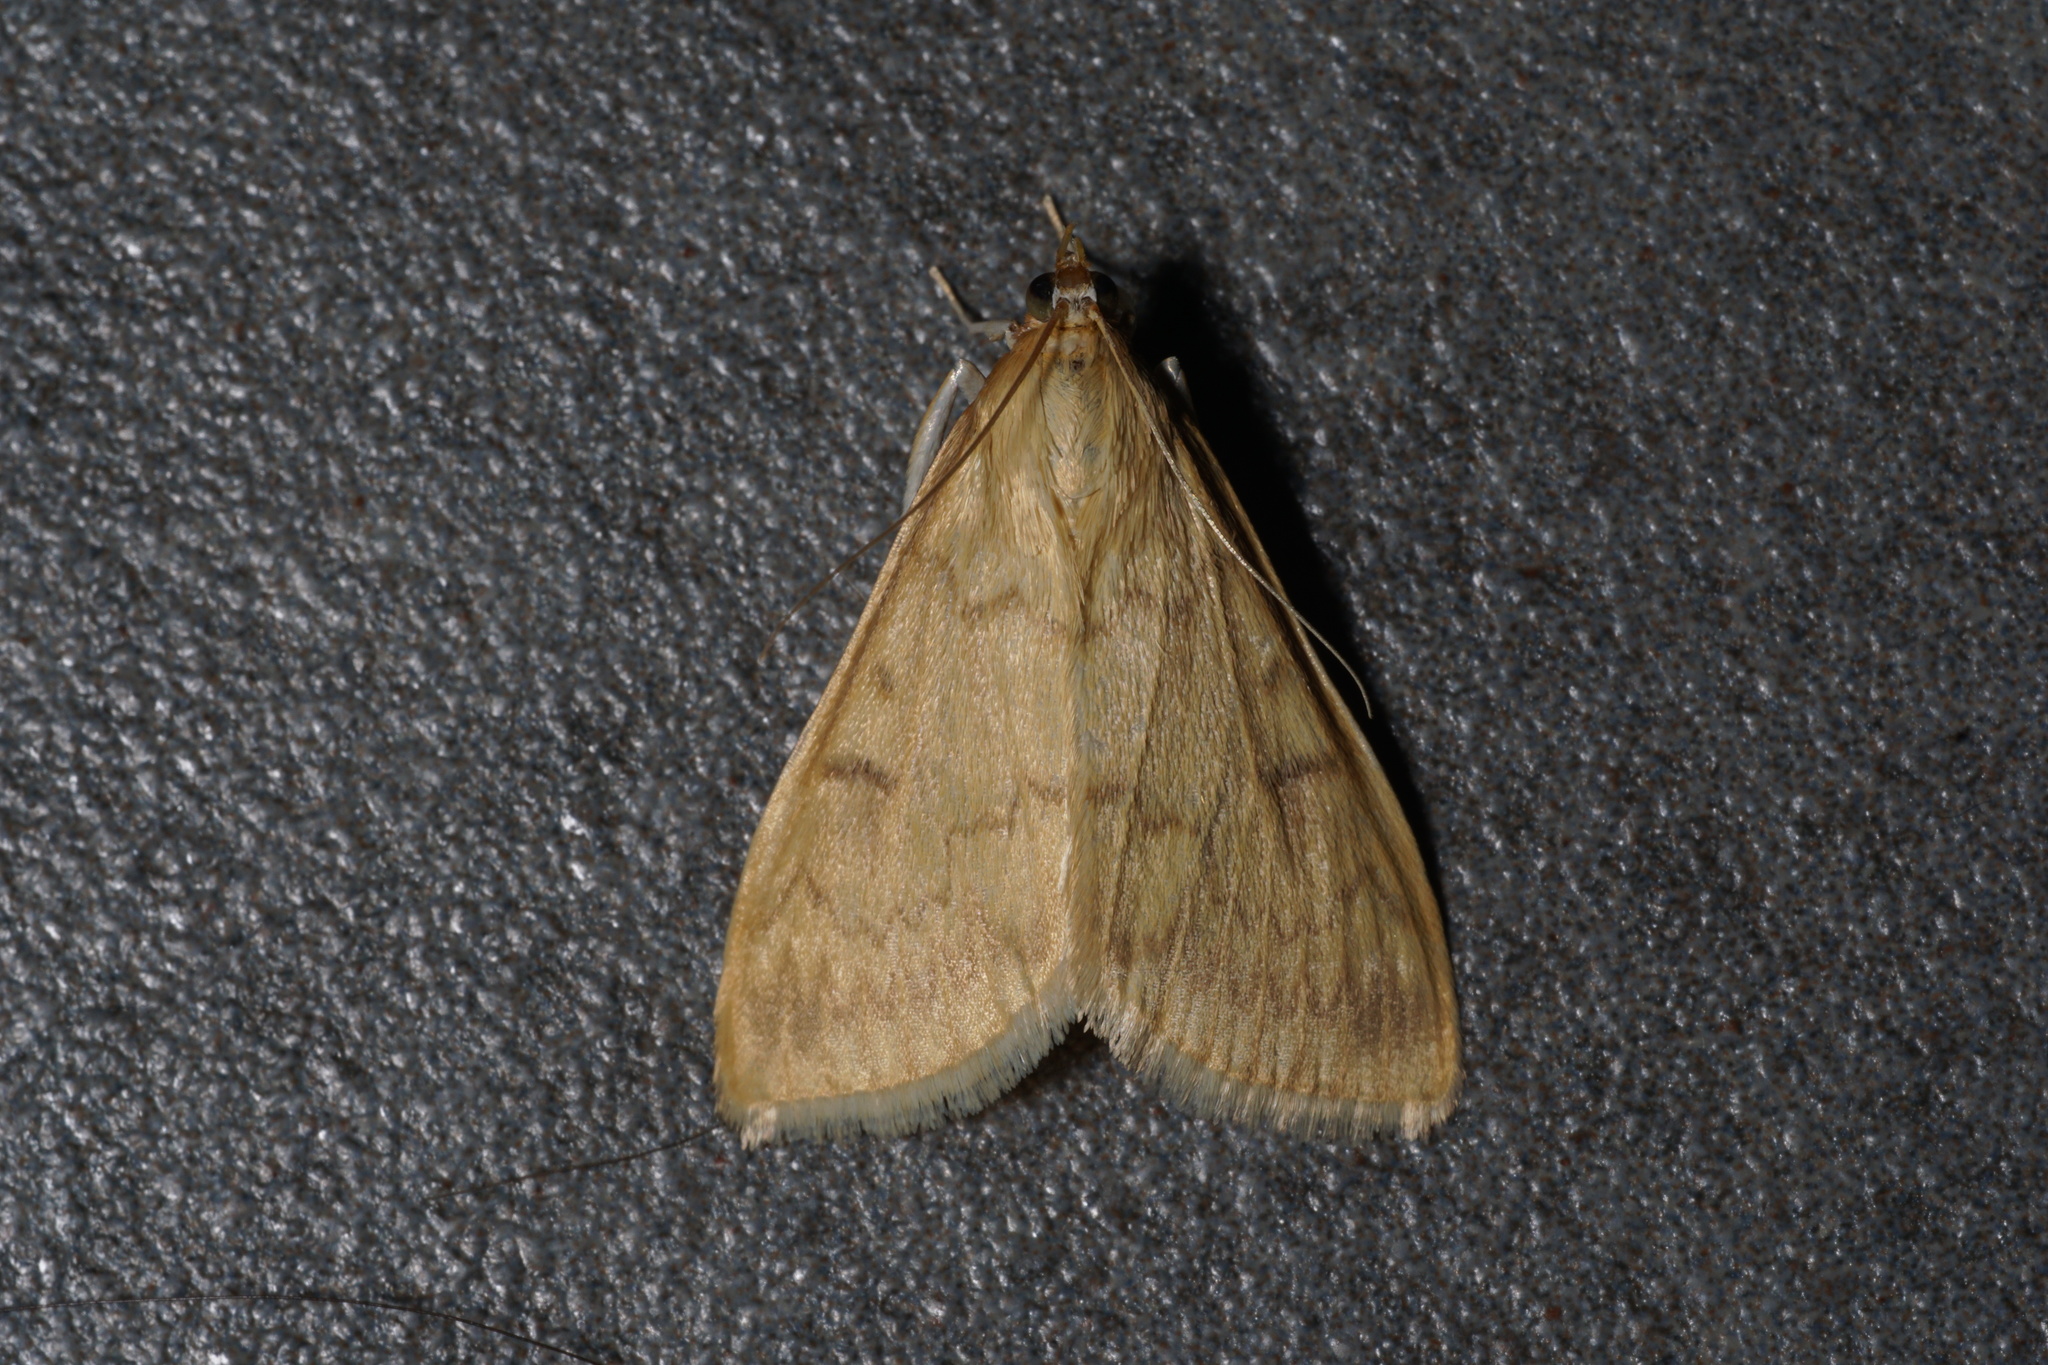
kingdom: Animalia
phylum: Arthropoda
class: Insecta
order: Lepidoptera
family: Crambidae
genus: Ostrinia
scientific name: Ostrinia nubilalis
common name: European corn borer
